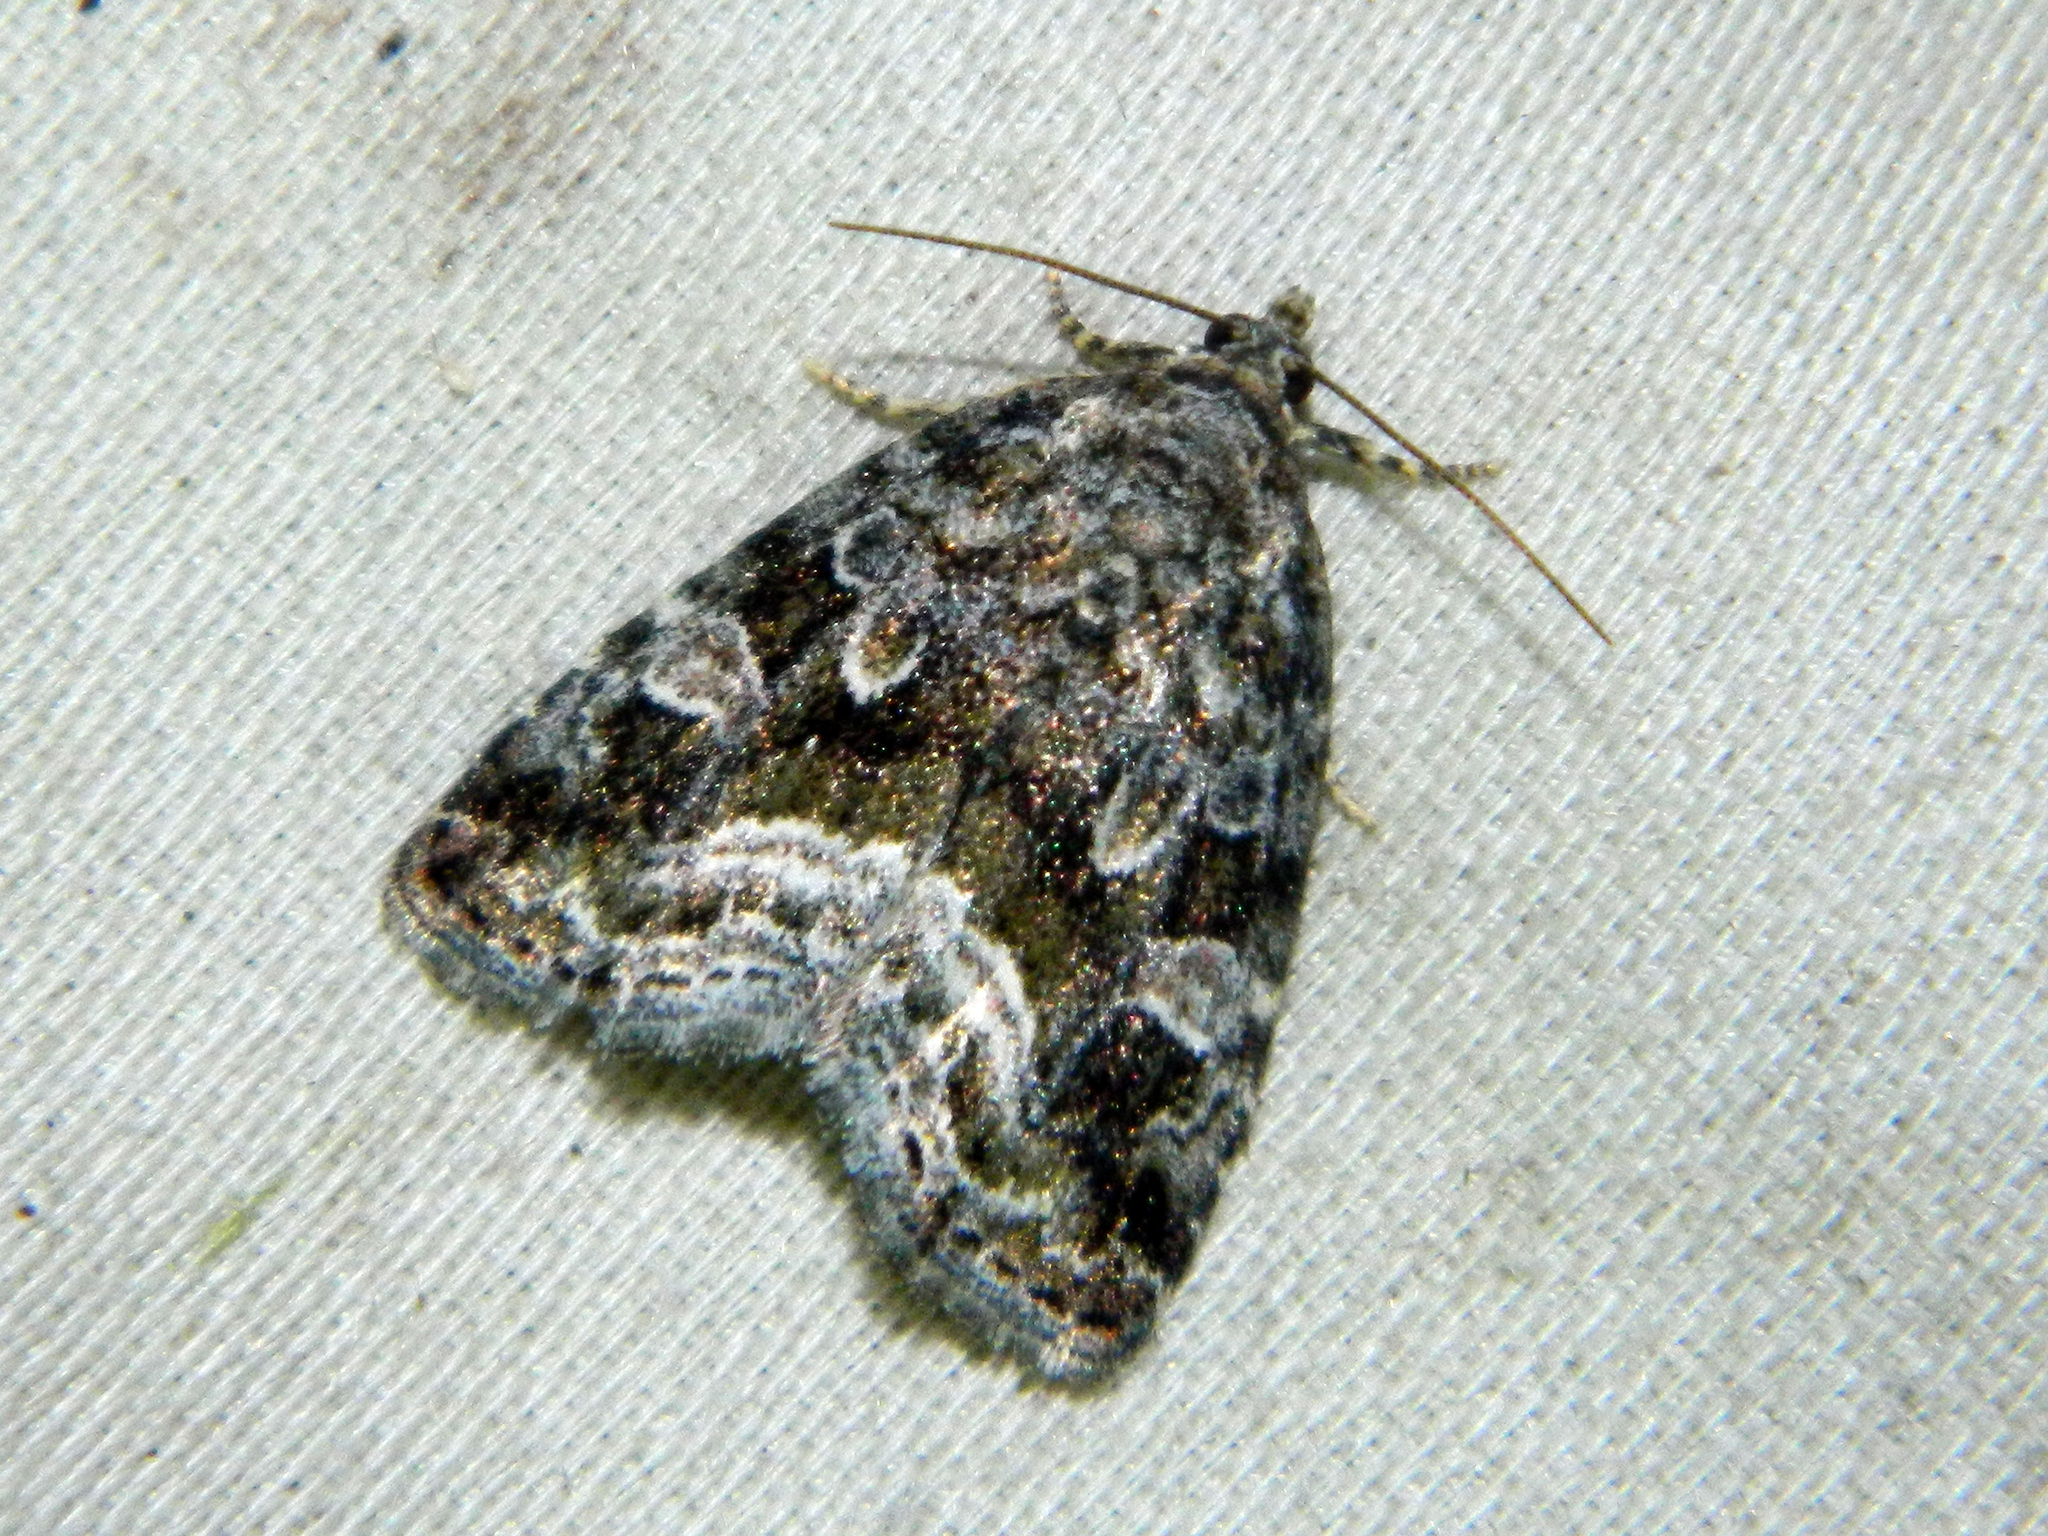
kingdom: Animalia
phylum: Arthropoda
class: Insecta
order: Lepidoptera
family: Noctuidae
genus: Protodeltote
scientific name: Protodeltote muscosula
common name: Large mossy glyph
